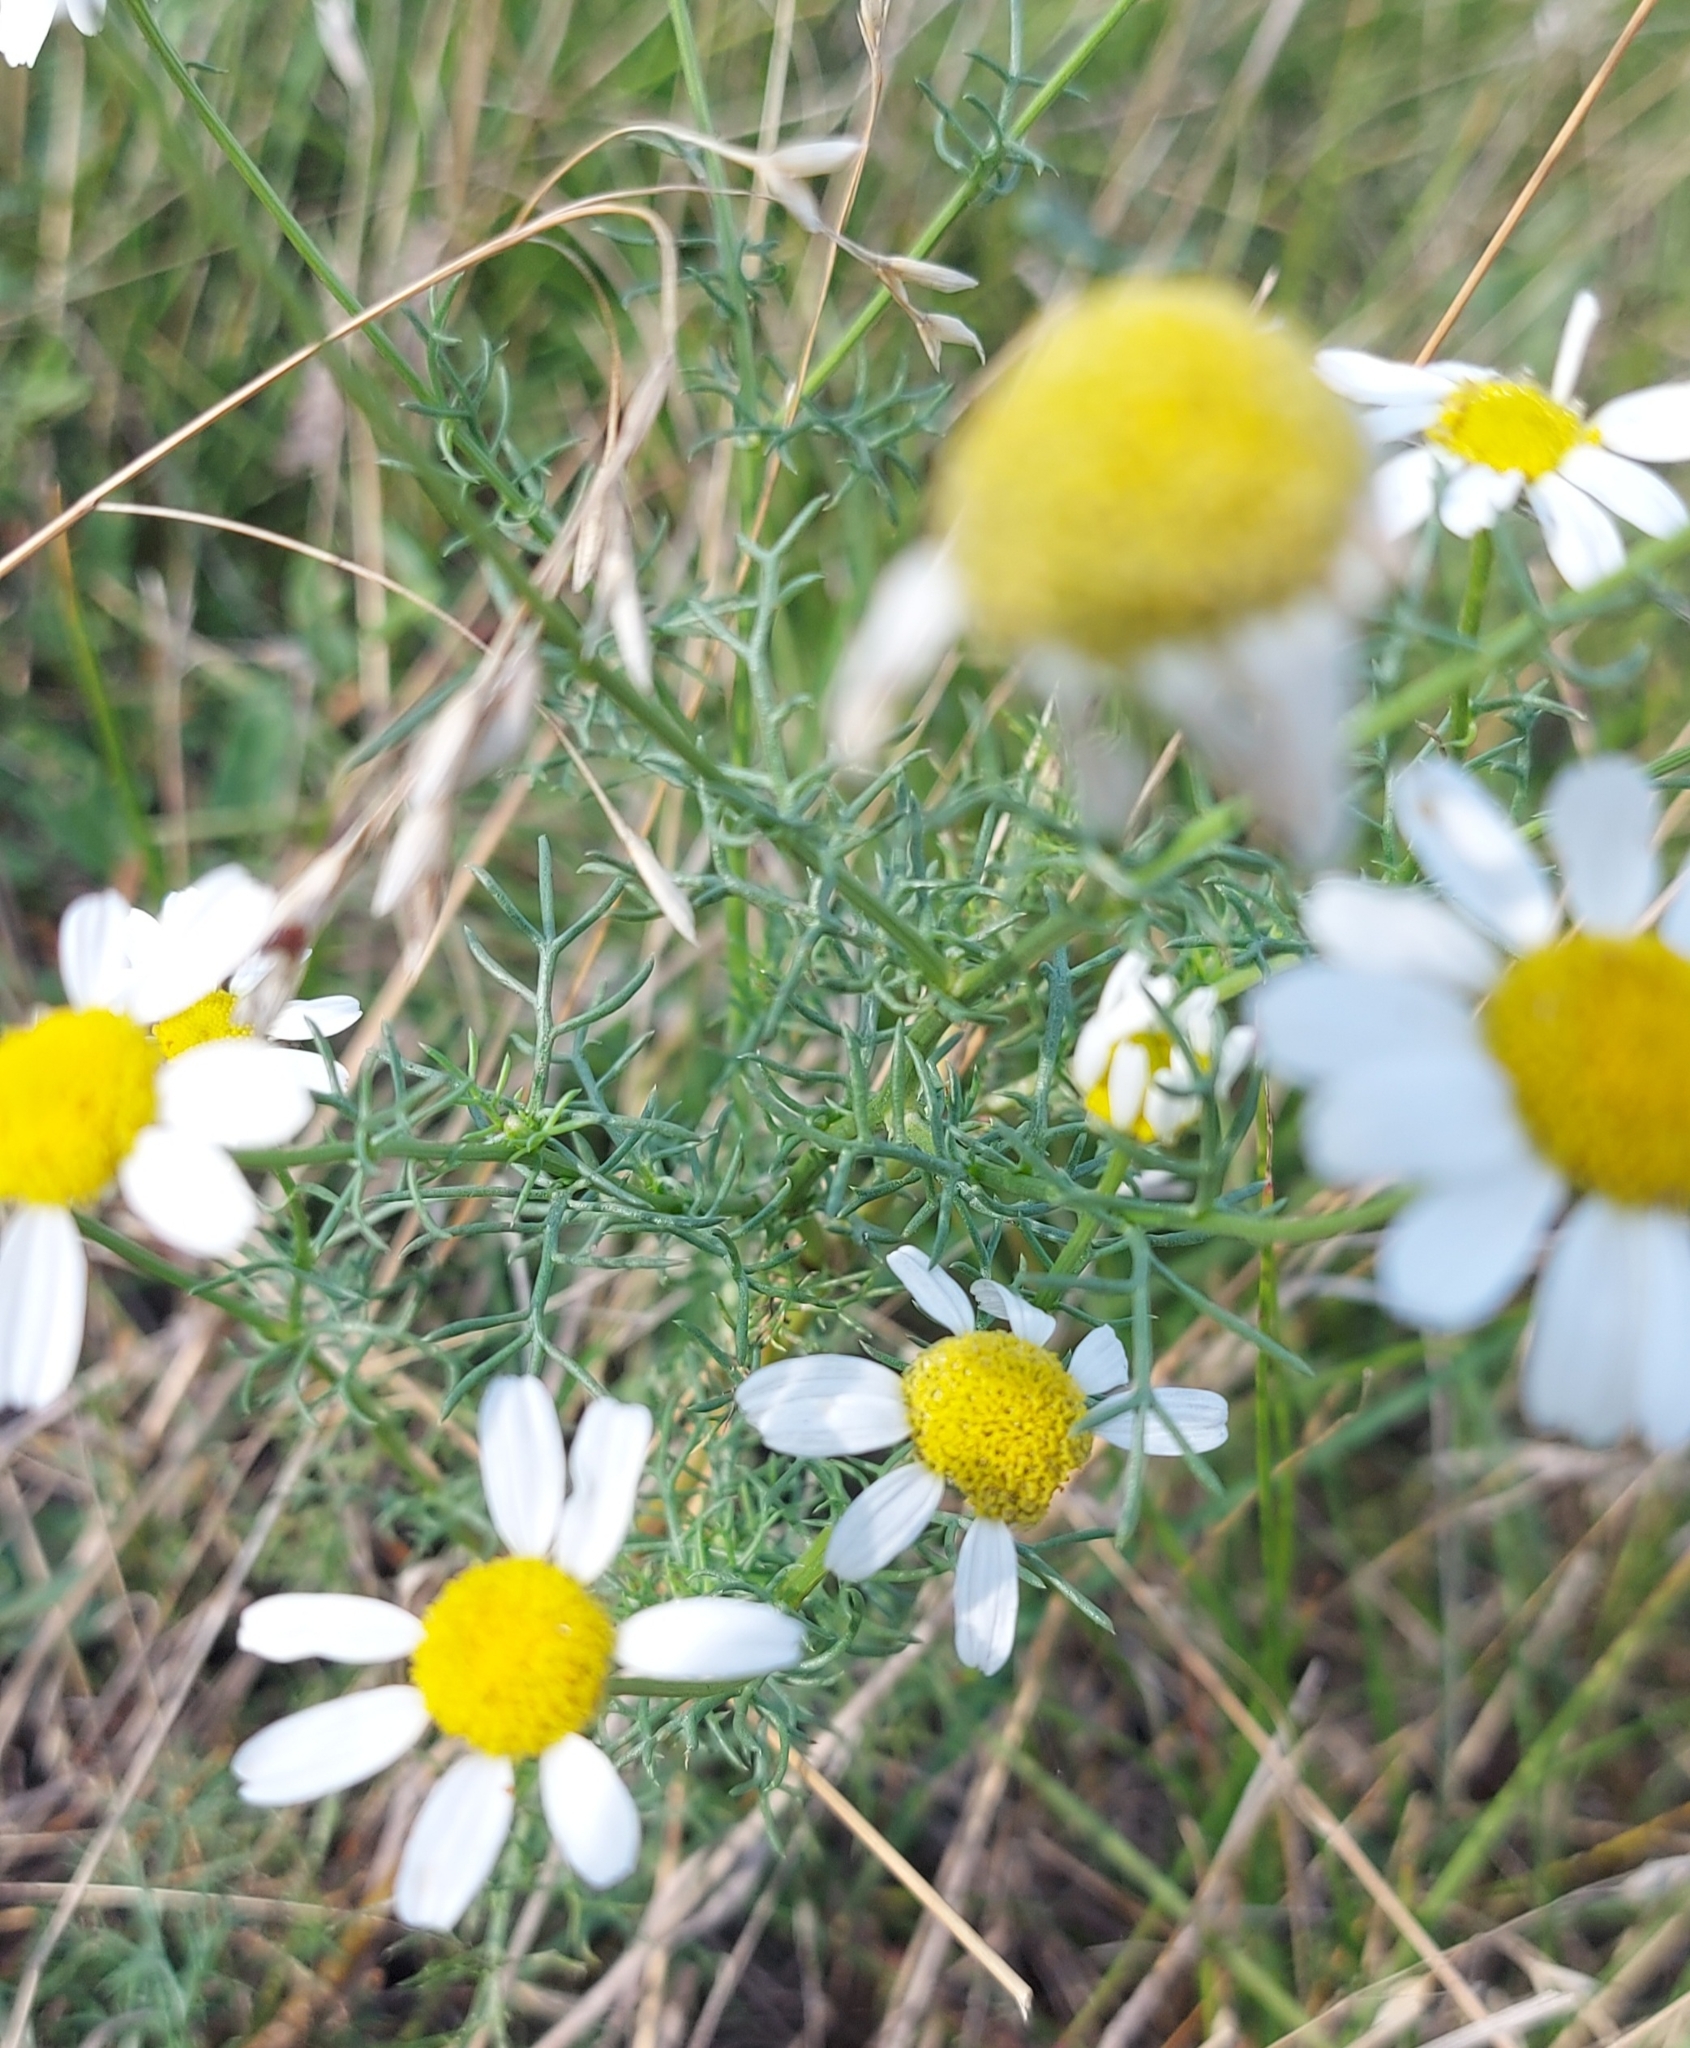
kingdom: Plantae
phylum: Tracheophyta
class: Magnoliopsida
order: Asterales
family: Asteraceae
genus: Tripleurospermum
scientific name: Tripleurospermum inodorum
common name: Scentless mayweed
